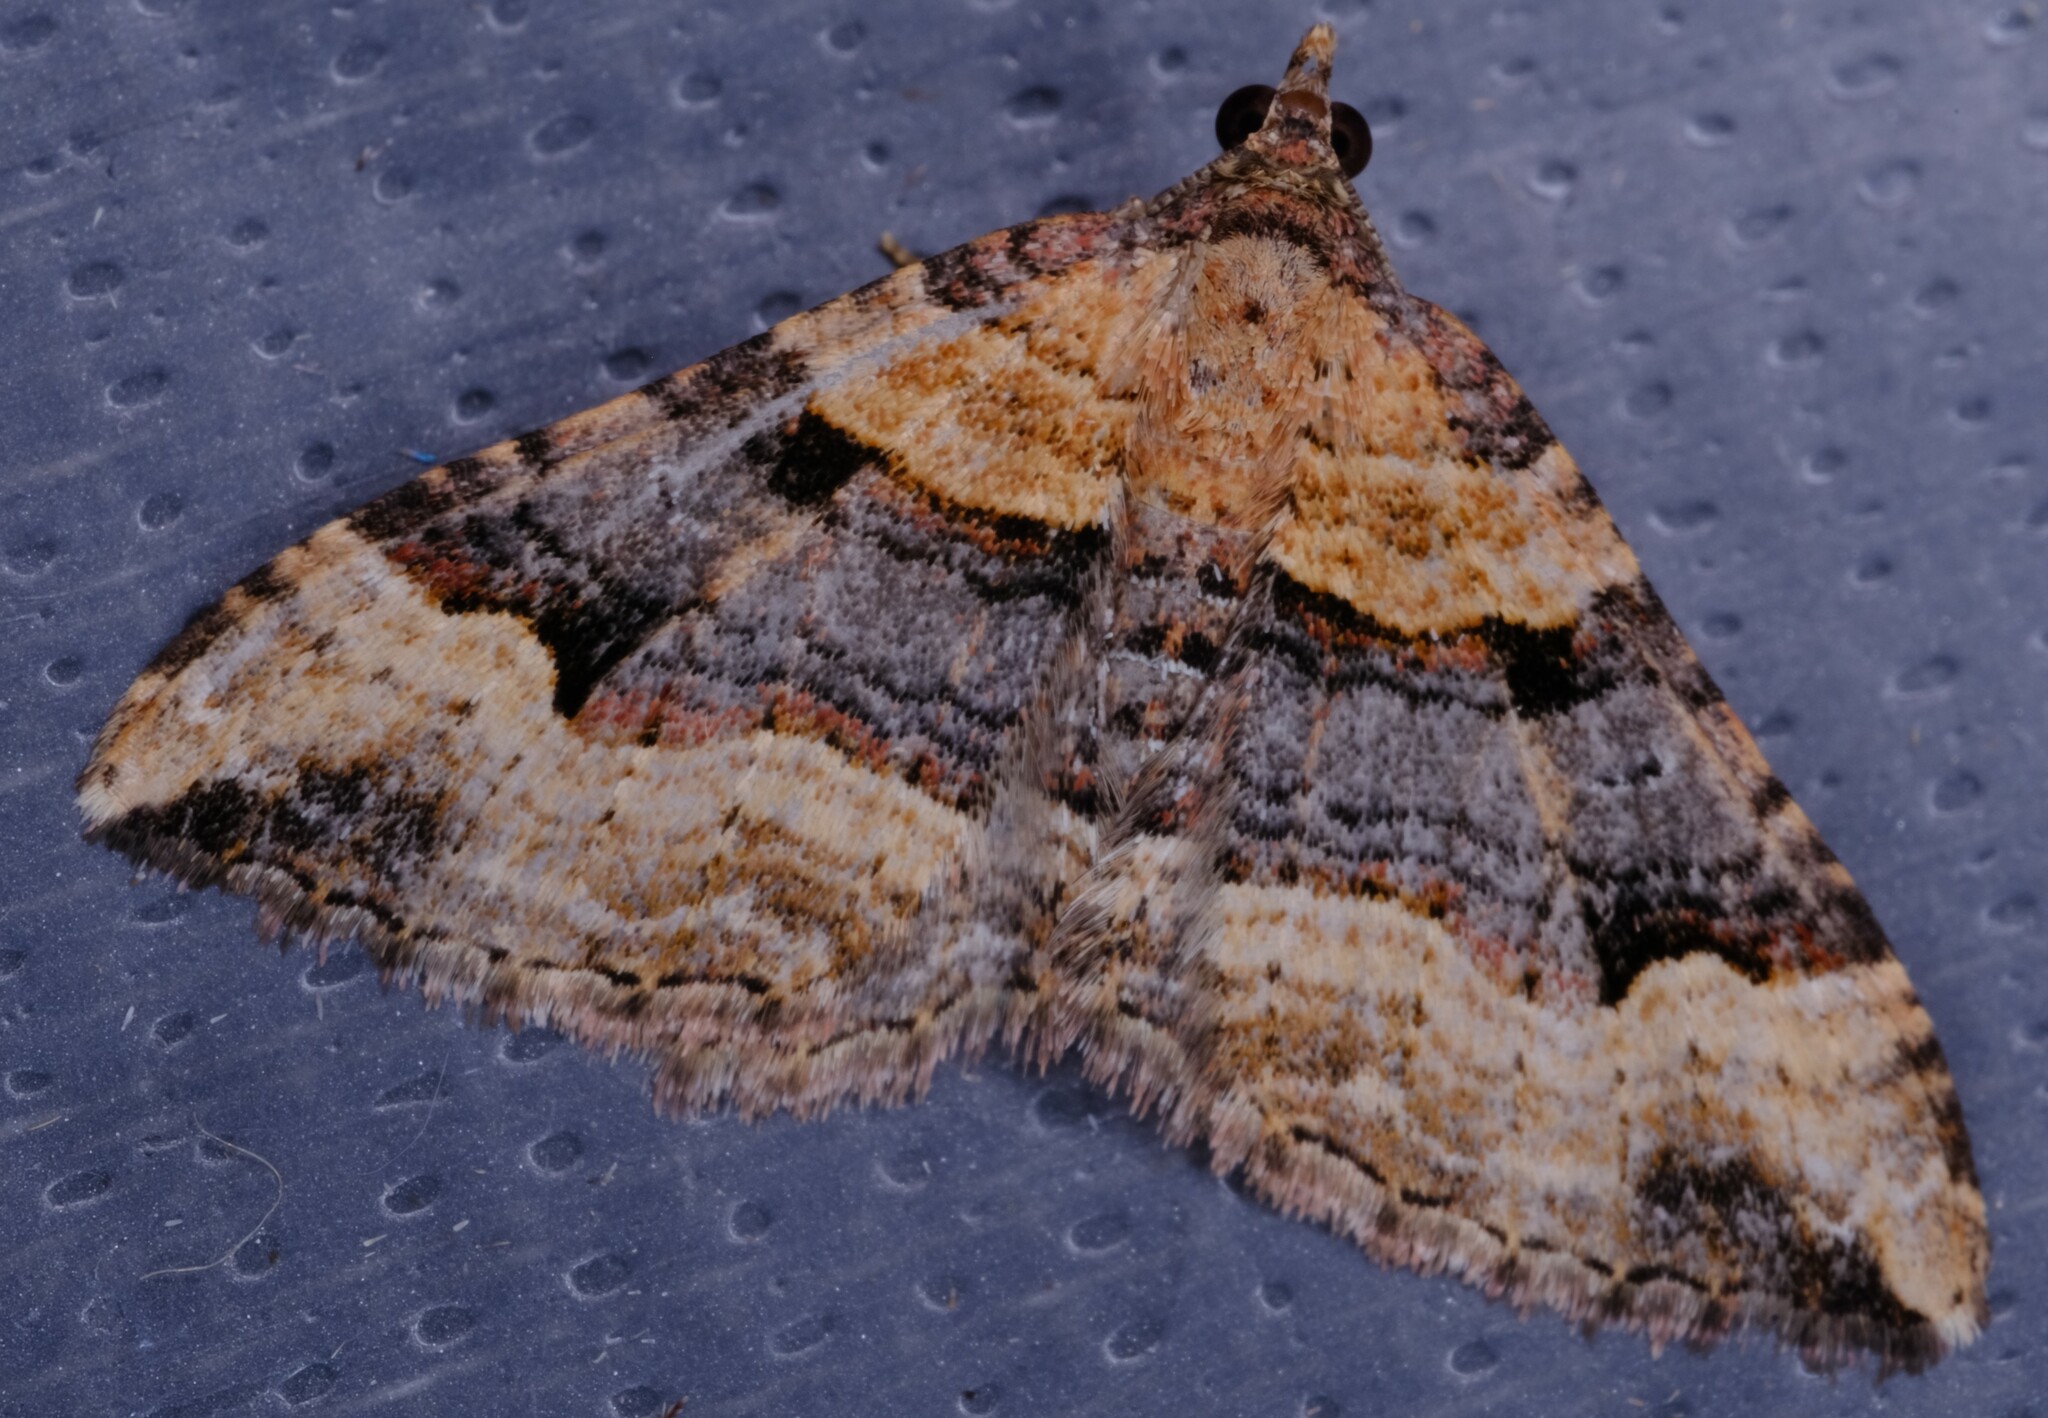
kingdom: Animalia
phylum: Arthropoda
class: Insecta
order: Lepidoptera
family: Geometridae
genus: Epyaxa
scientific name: Epyaxa subidaria
